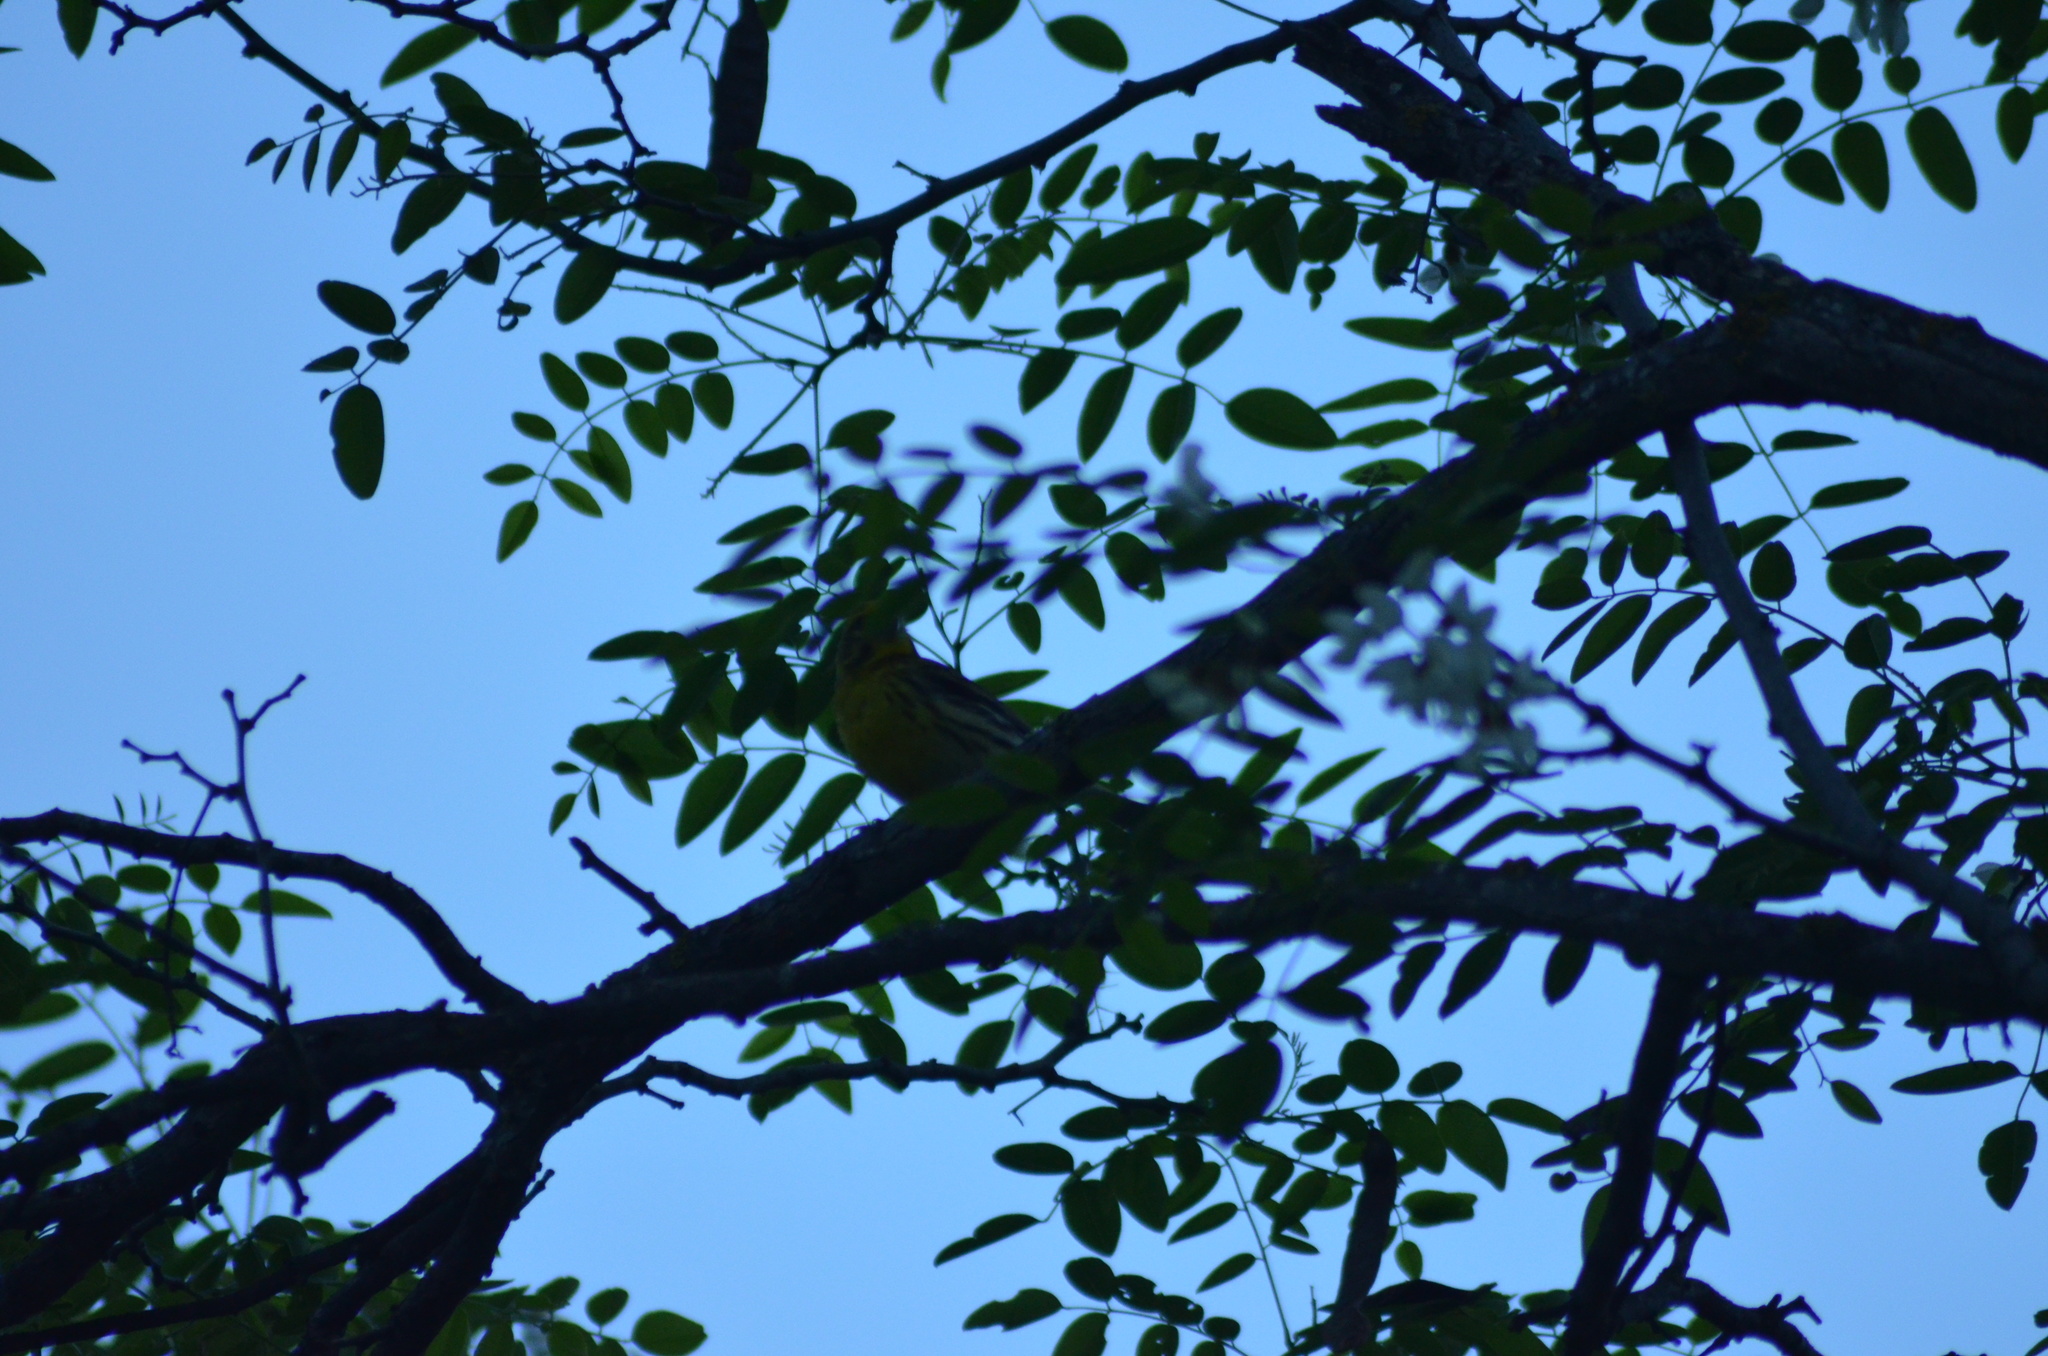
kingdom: Animalia
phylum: Chordata
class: Aves
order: Passeriformes
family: Fringillidae
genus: Serinus
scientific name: Serinus serinus
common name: European serin
